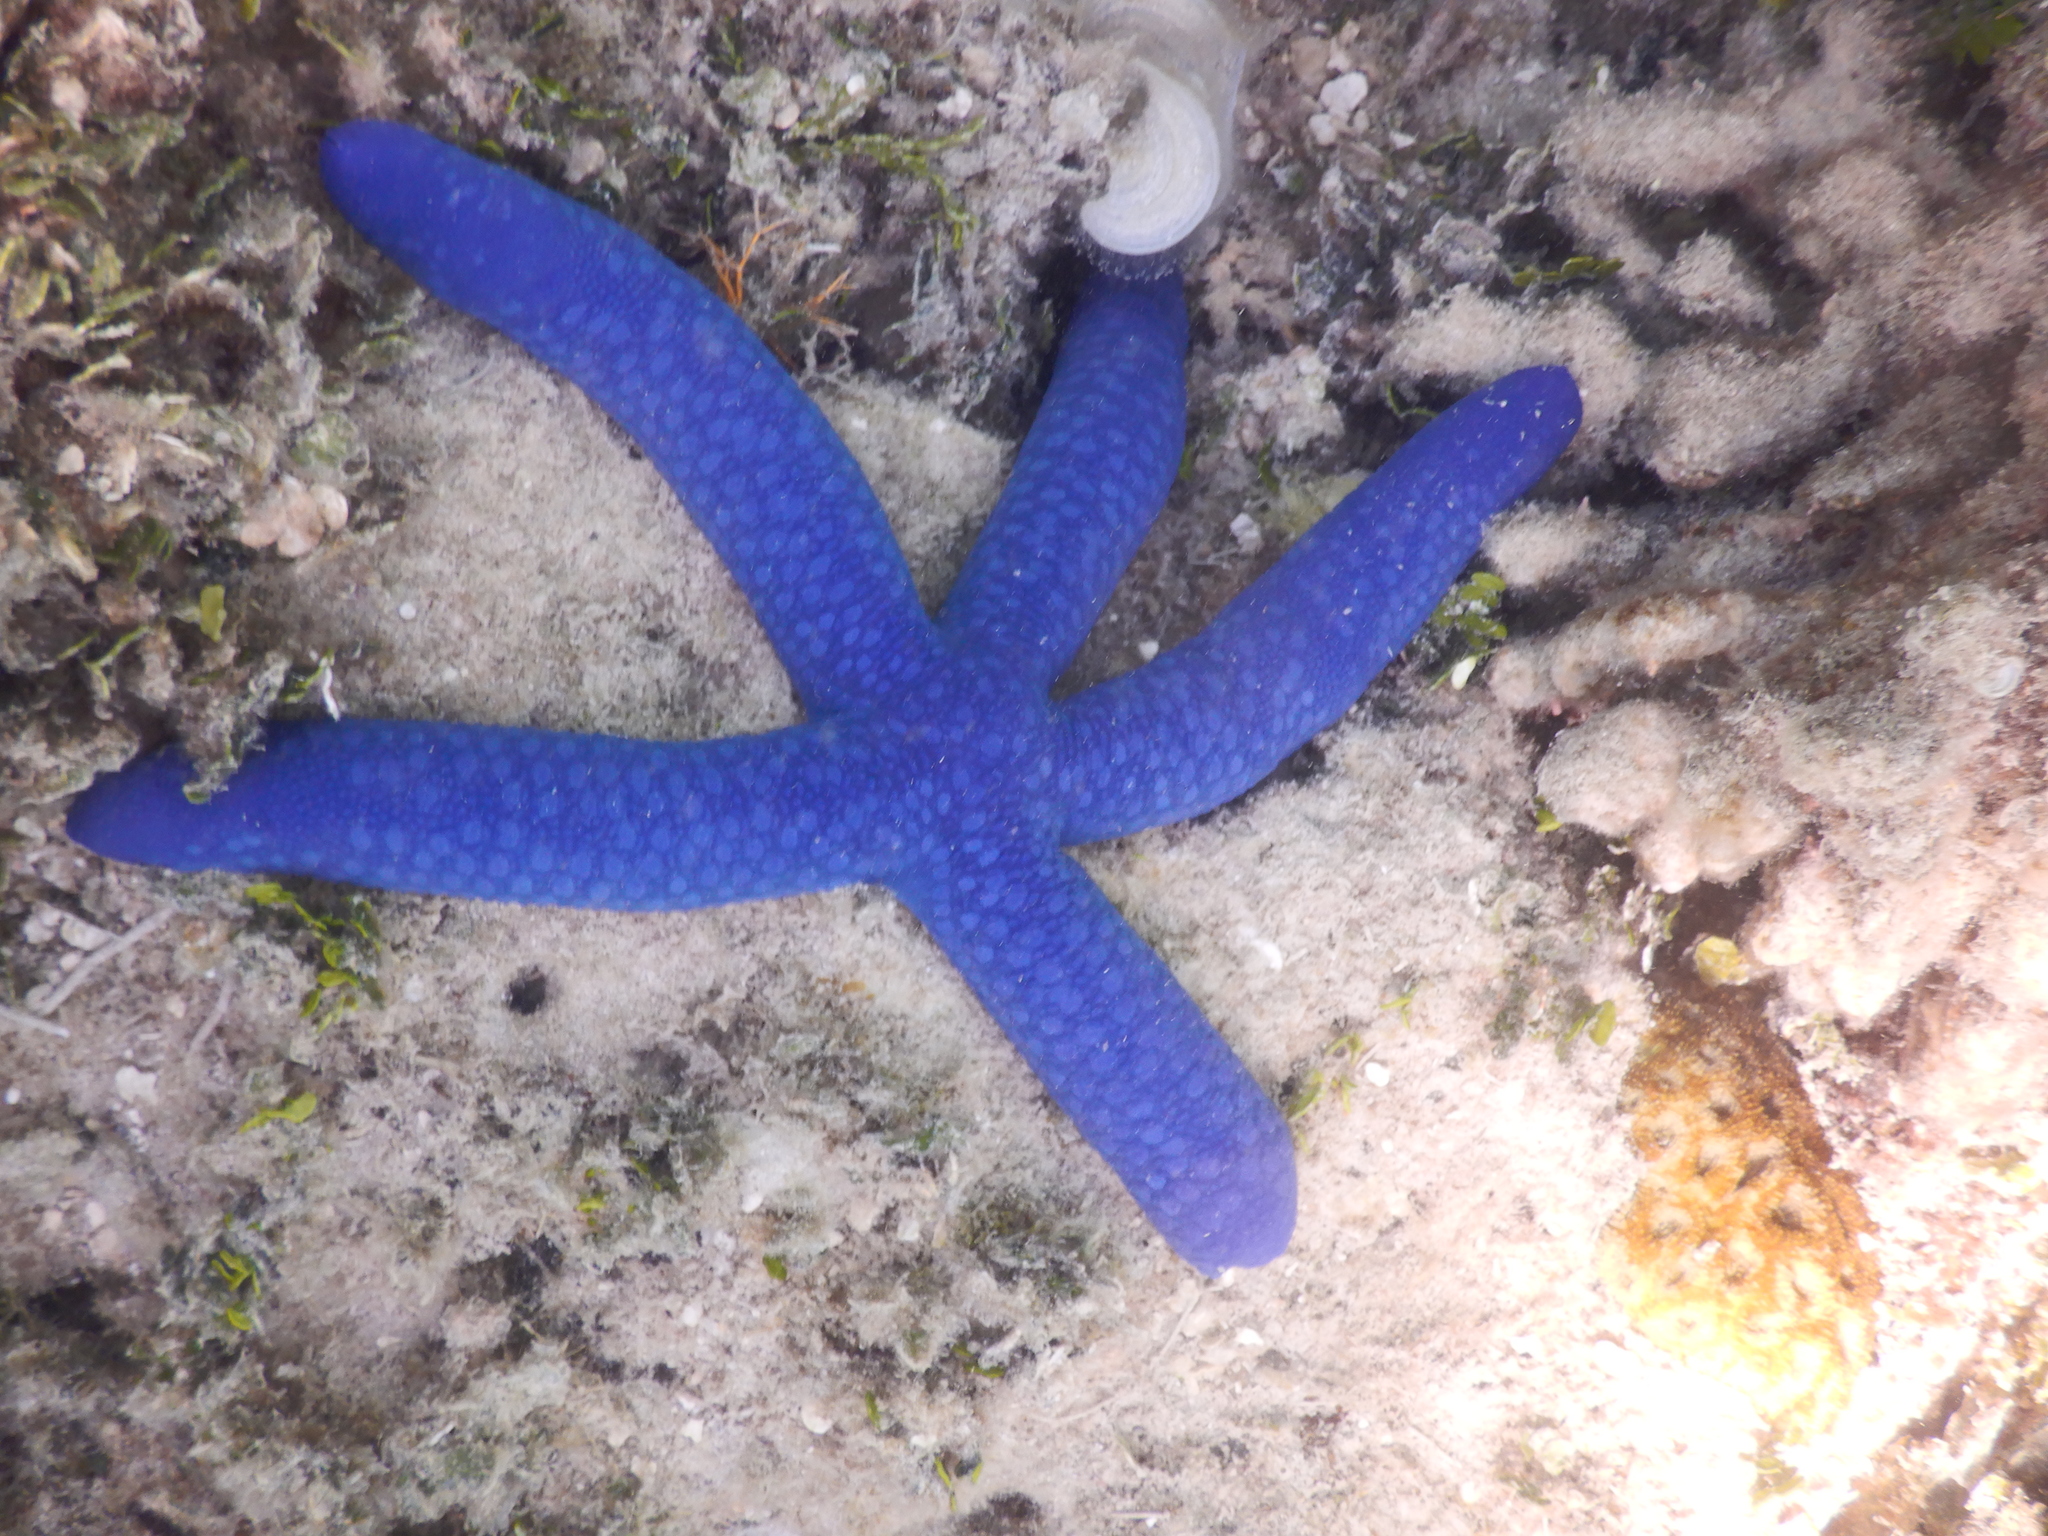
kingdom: Animalia
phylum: Echinodermata
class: Asteroidea
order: Valvatida
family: Ophidiasteridae
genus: Linckia
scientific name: Linckia laevigata
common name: Azure sea star
